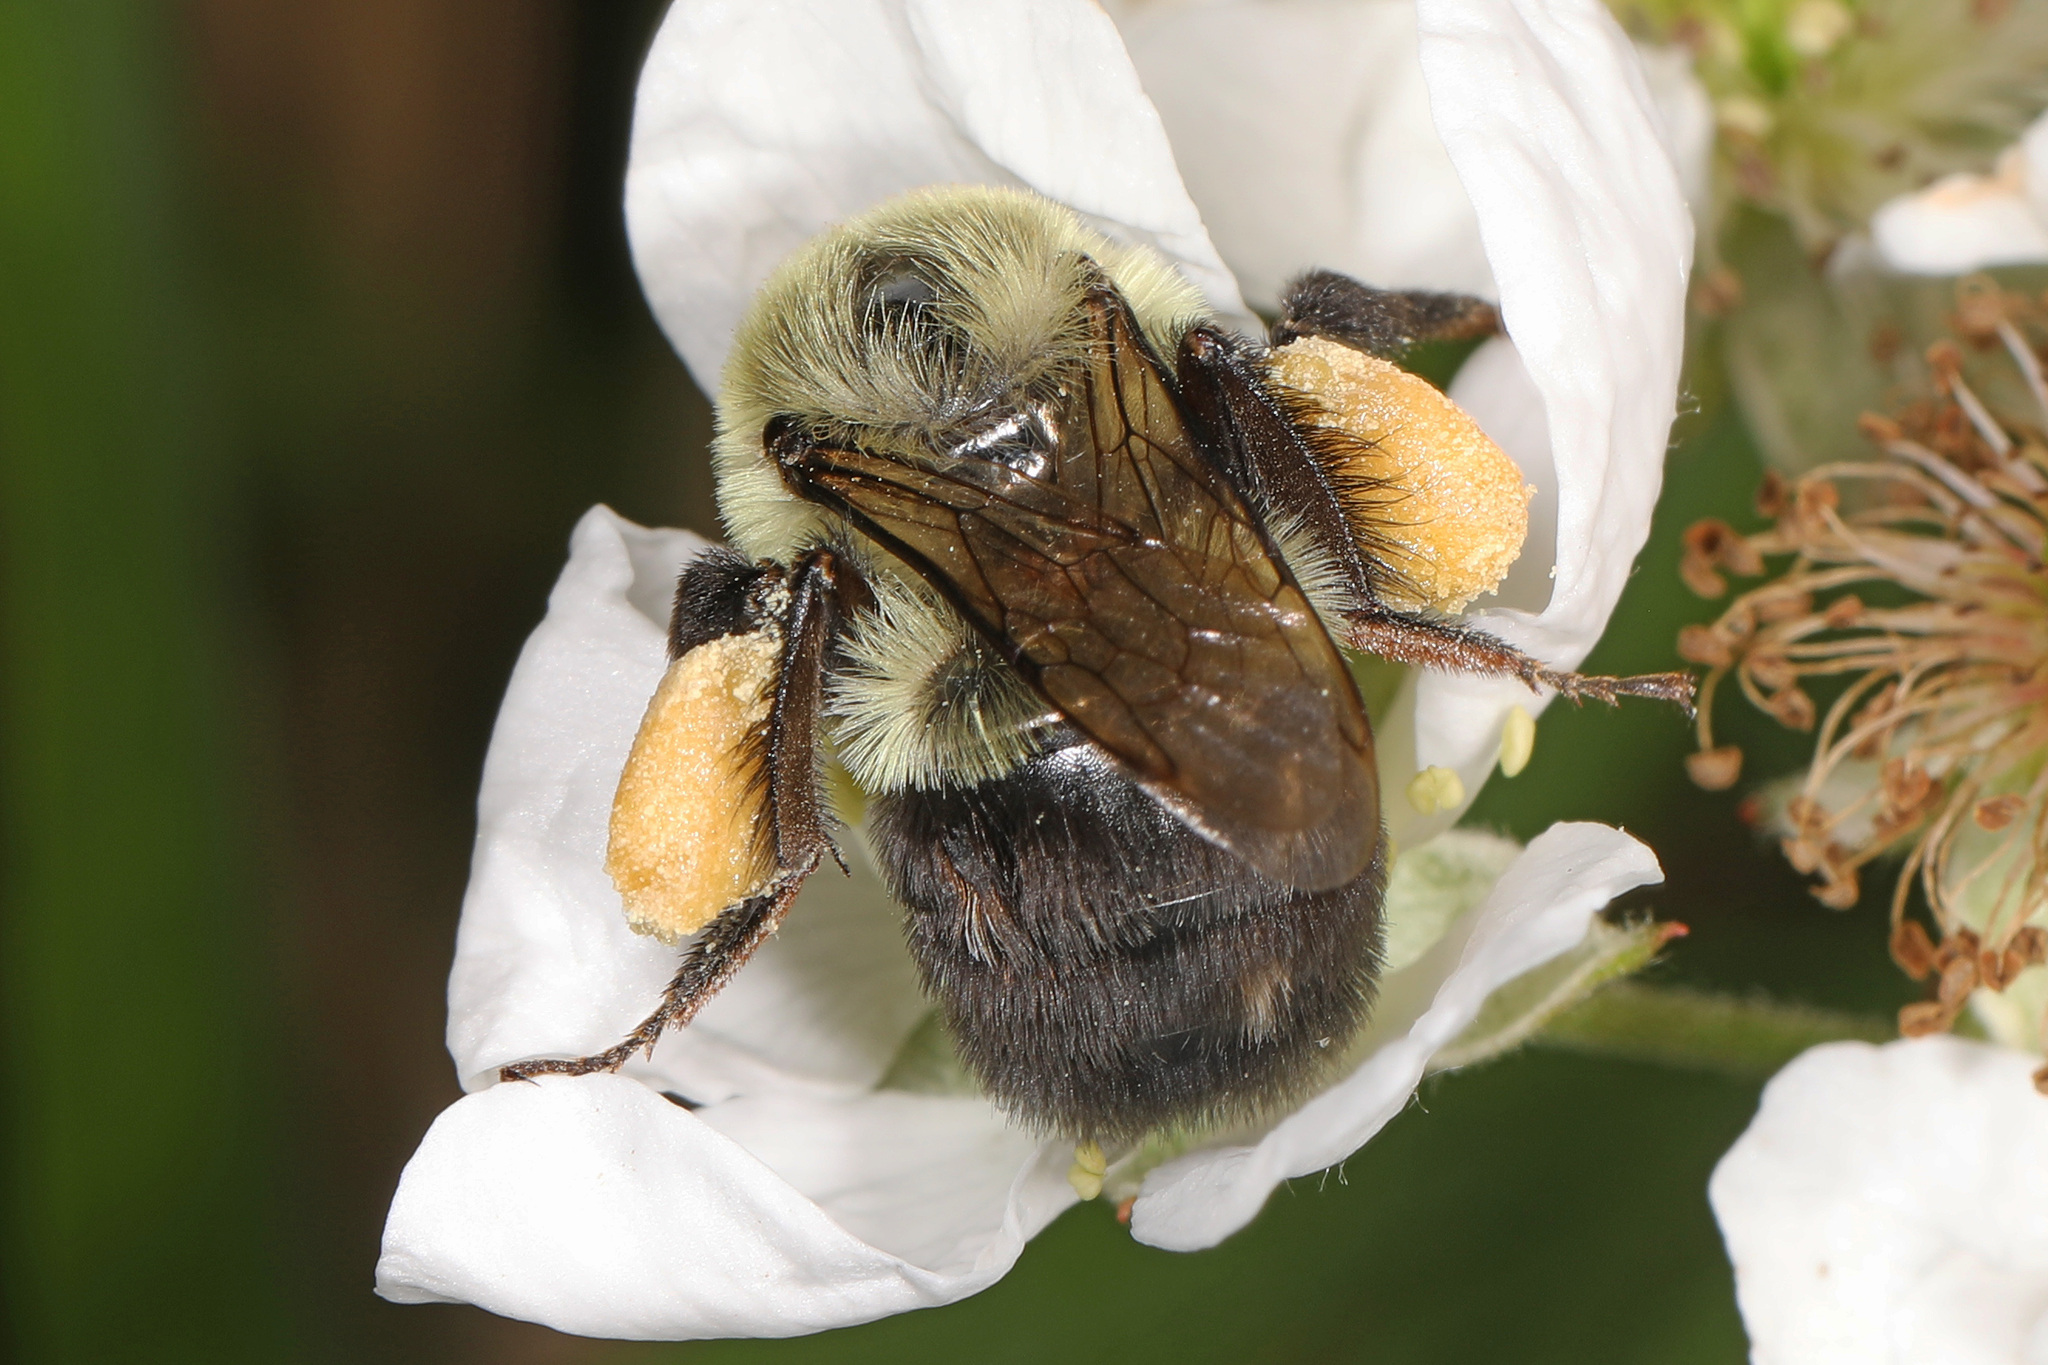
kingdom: Animalia
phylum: Arthropoda
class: Insecta
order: Hymenoptera
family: Apidae
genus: Bombus
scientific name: Bombus impatiens
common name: Common eastern bumble bee
